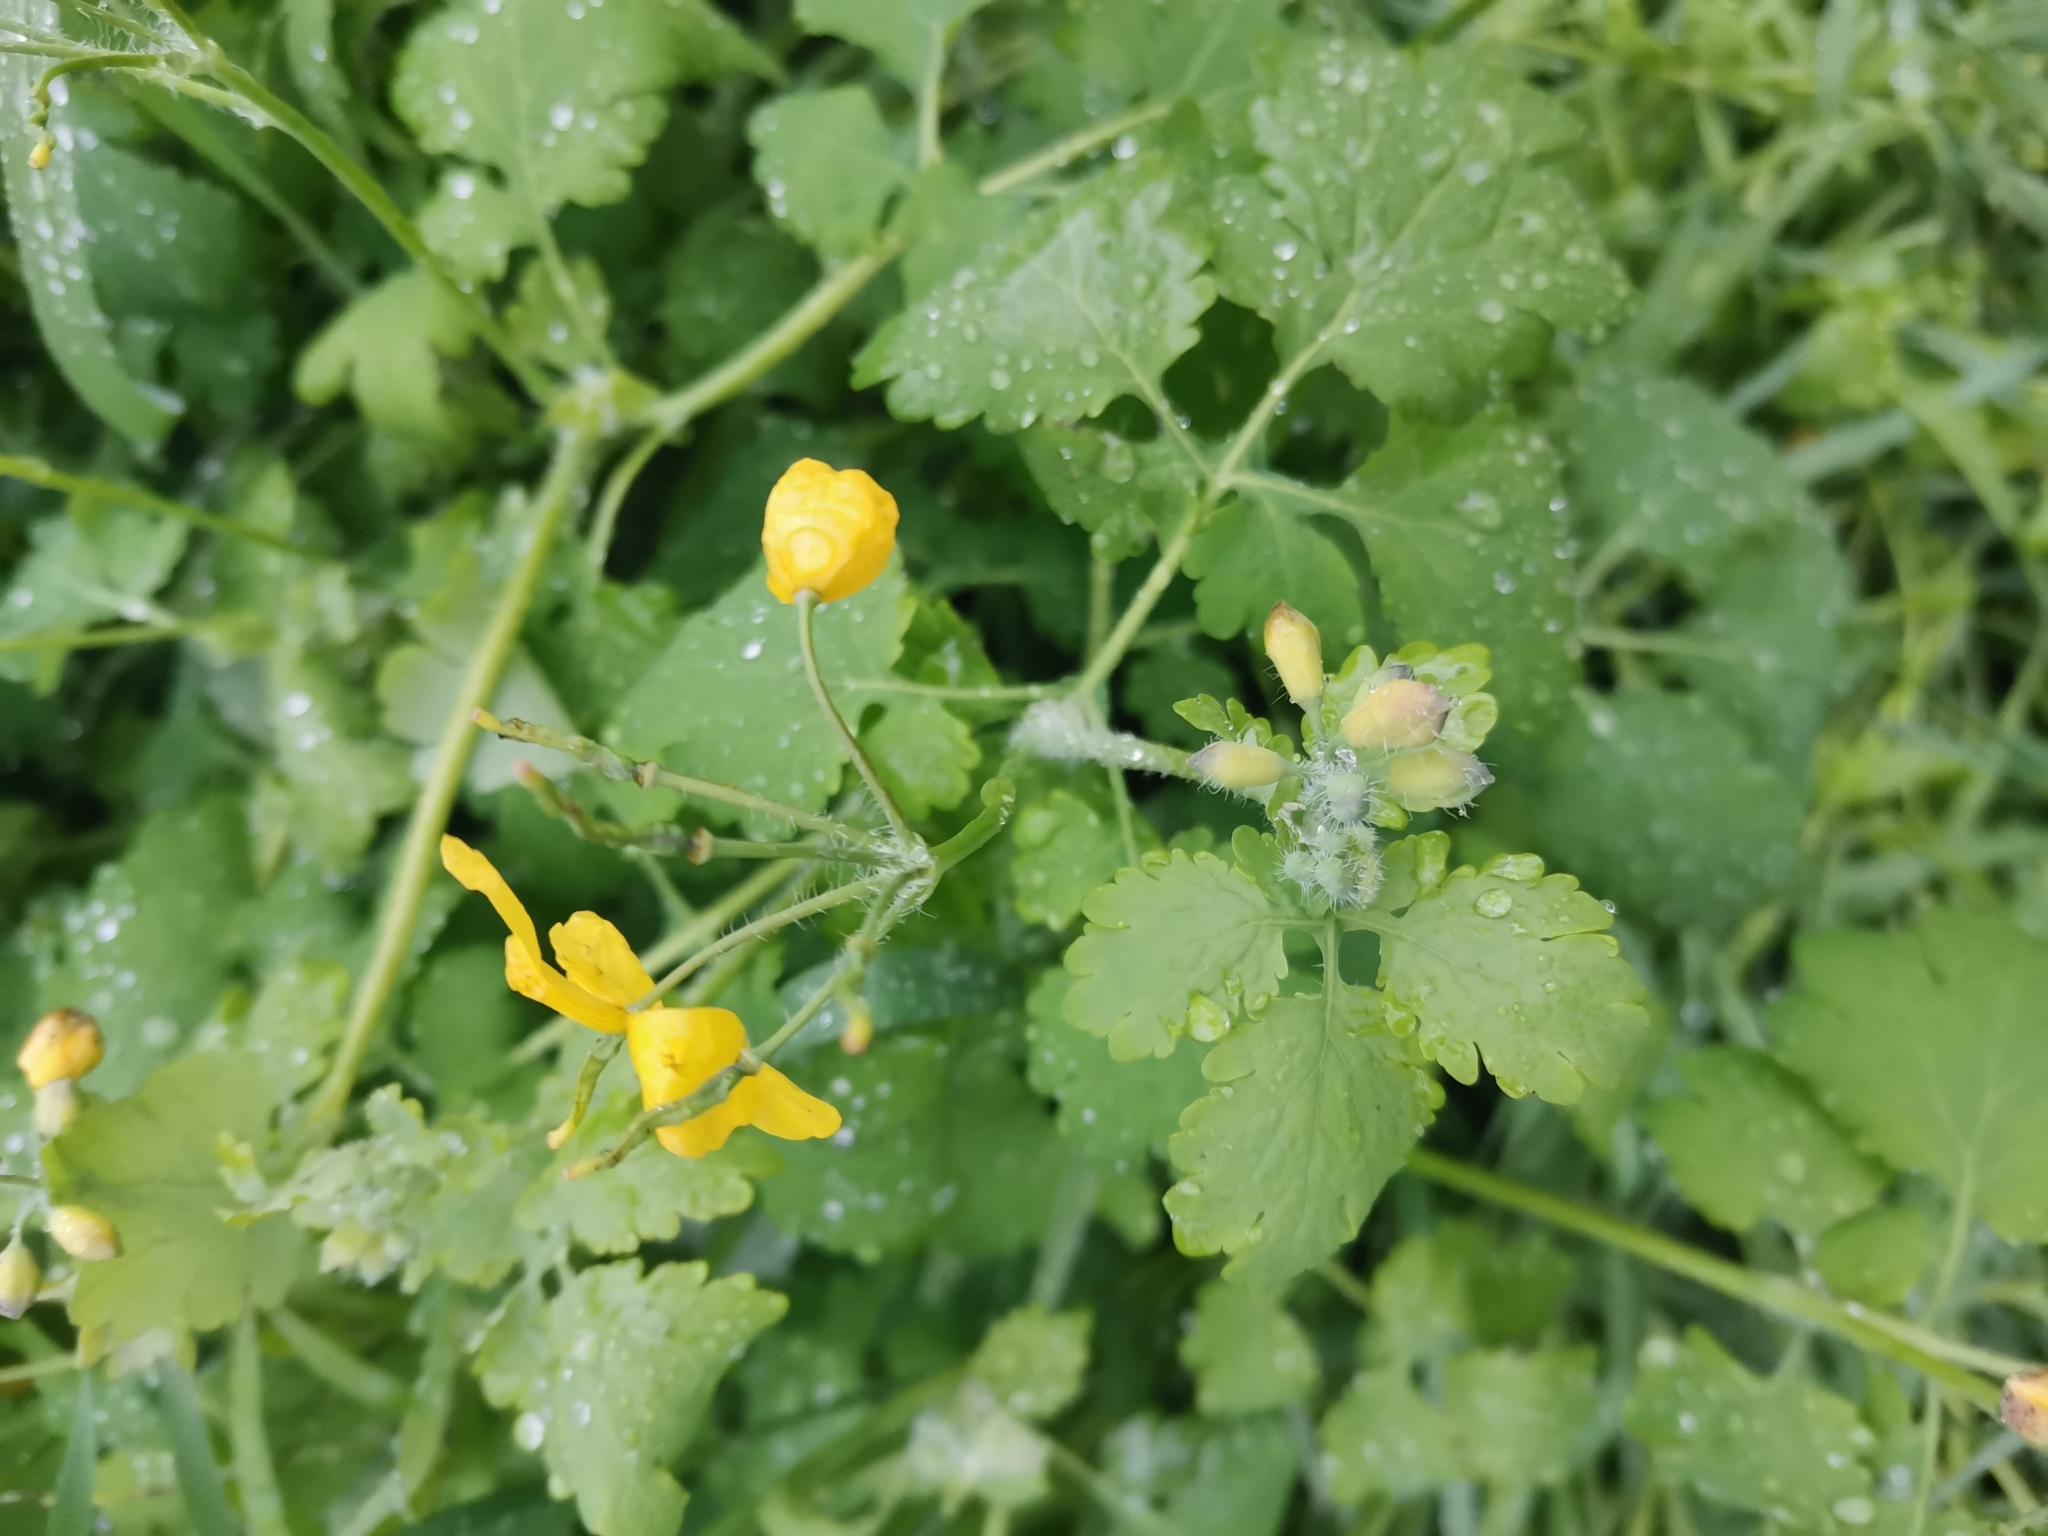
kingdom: Plantae
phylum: Tracheophyta
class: Magnoliopsida
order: Ranunculales
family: Papaveraceae
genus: Chelidonium
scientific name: Chelidonium majus
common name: Greater celandine
